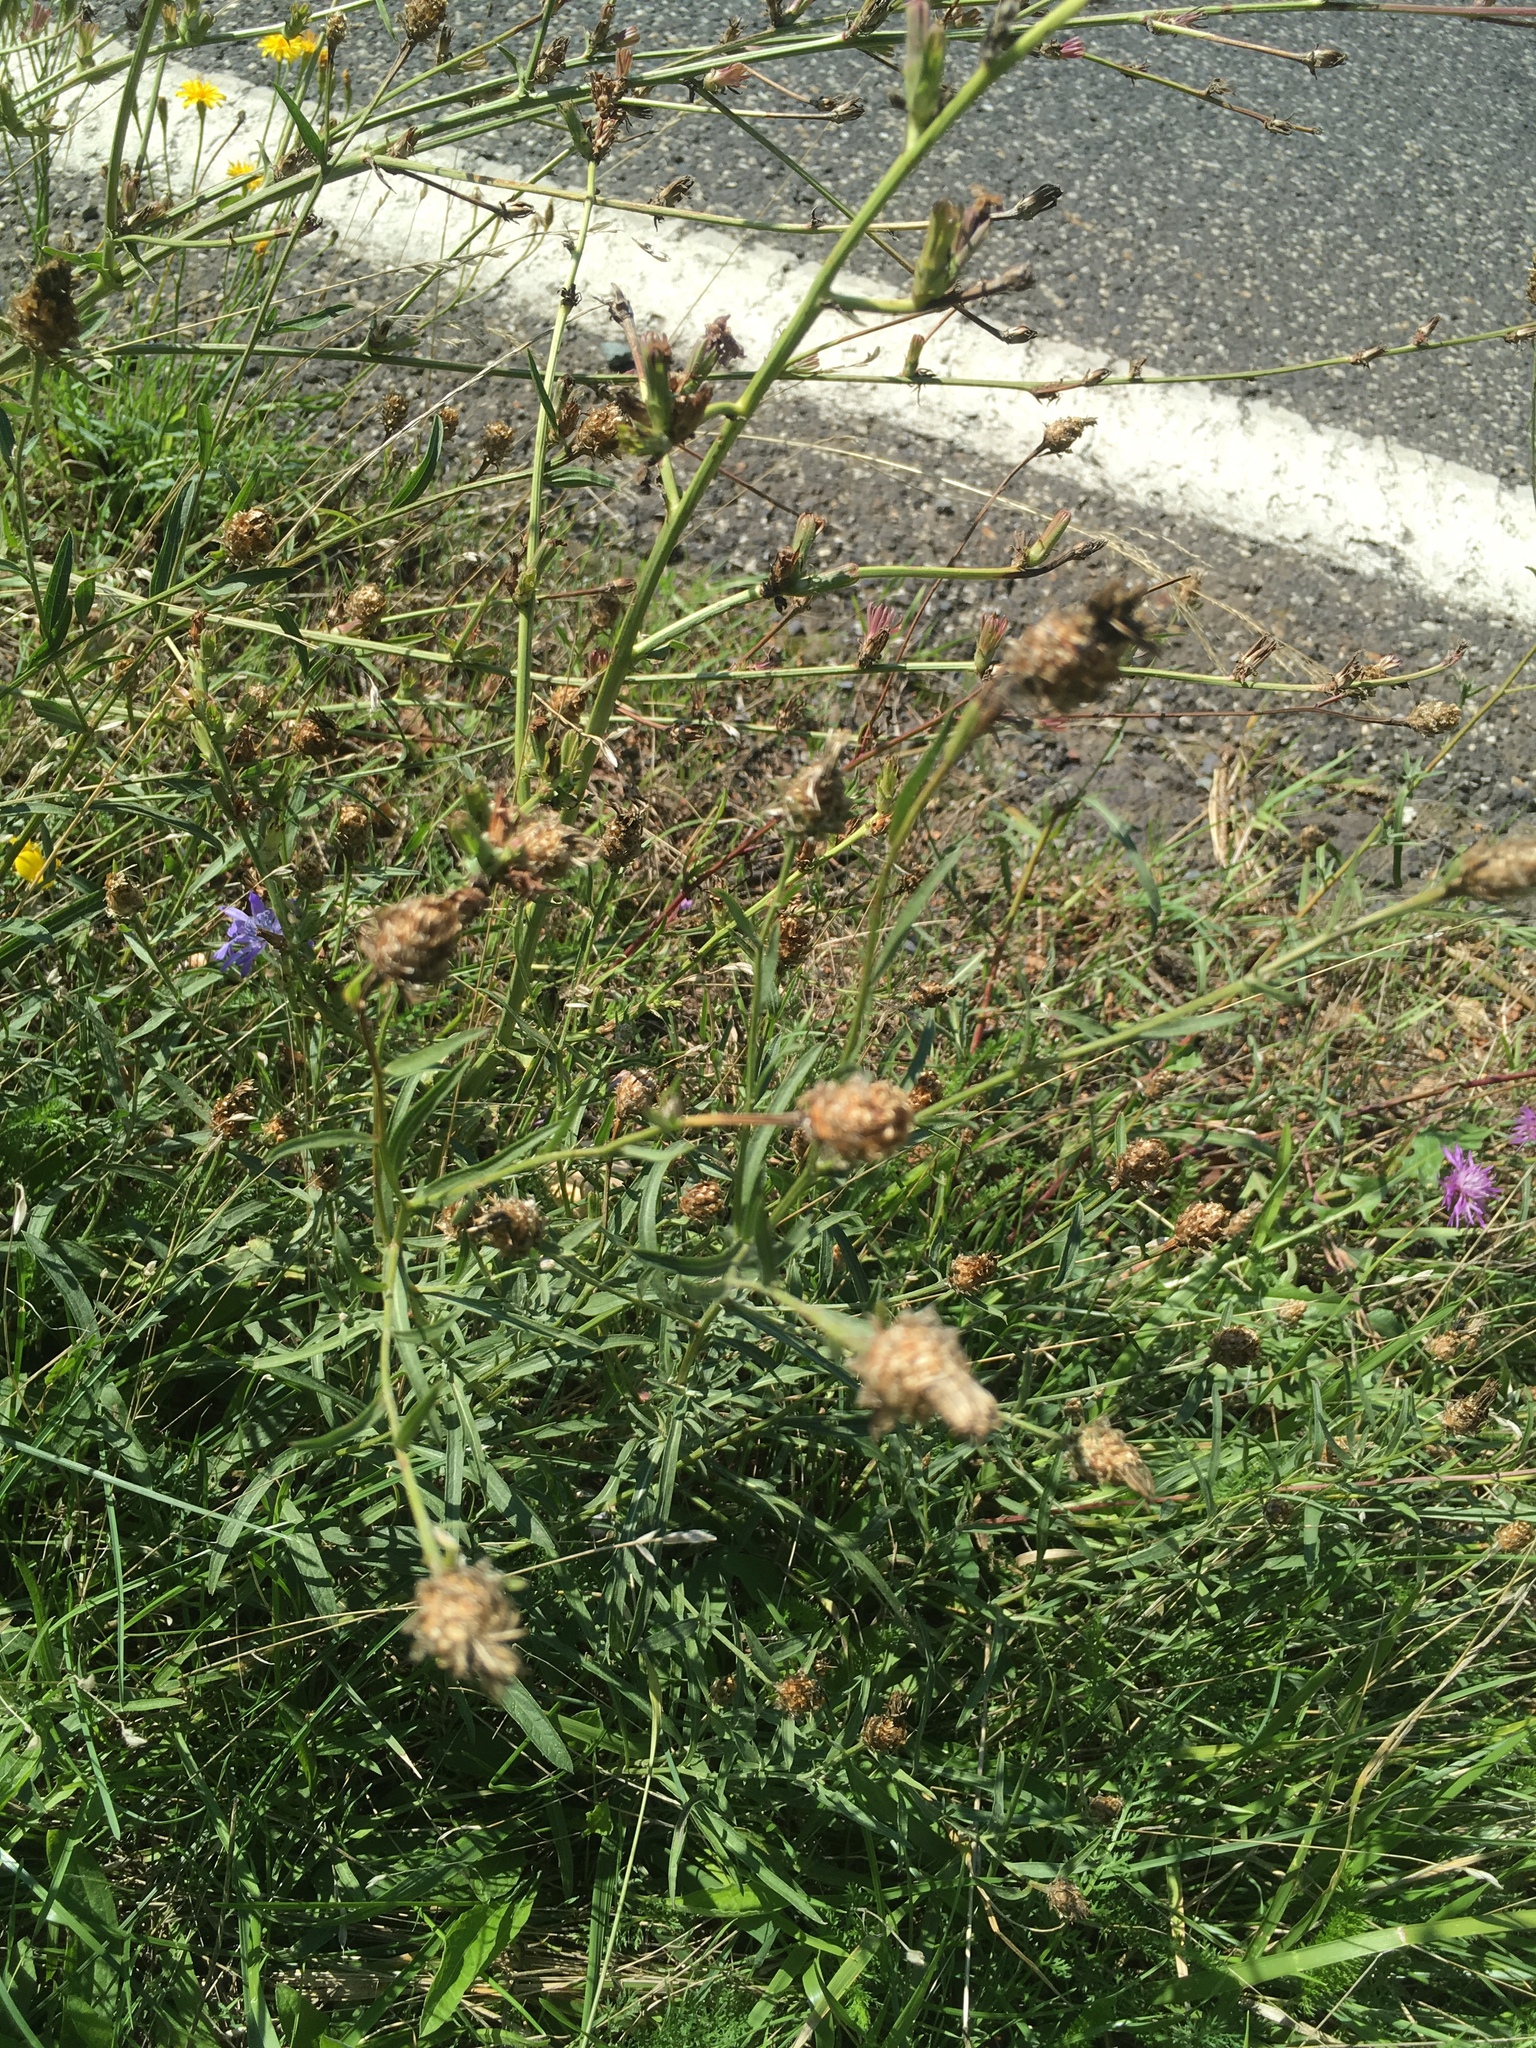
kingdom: Plantae
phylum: Tracheophyta
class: Magnoliopsida
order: Asterales
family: Asteraceae
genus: Centaurea
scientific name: Centaurea jacea
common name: Brown knapweed
